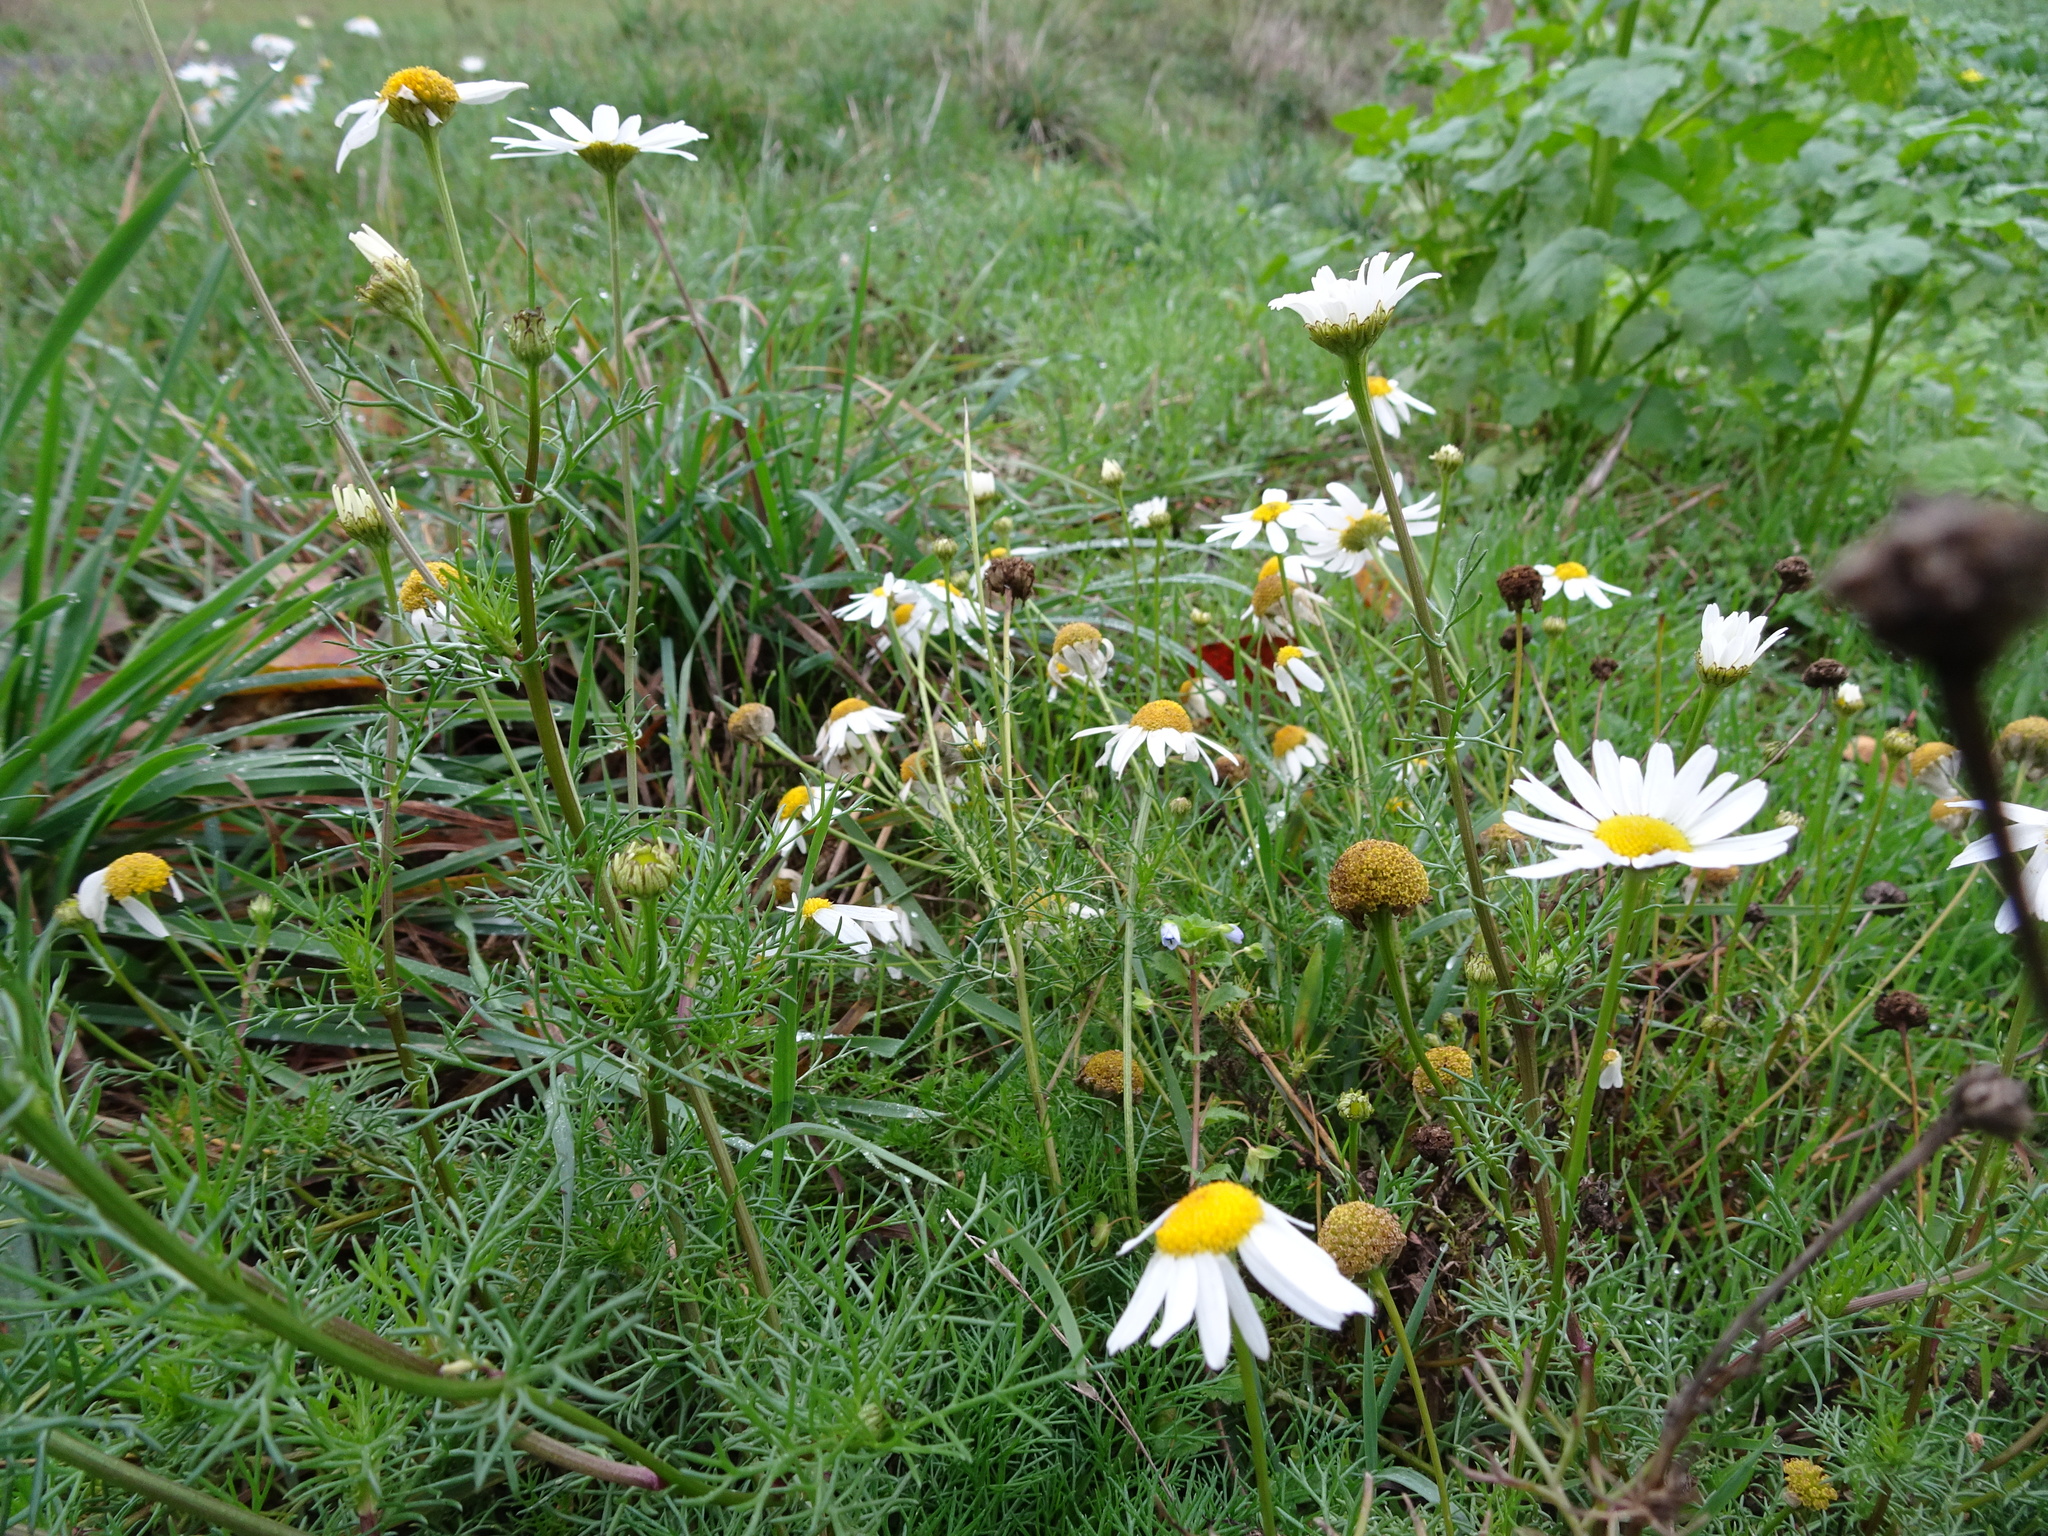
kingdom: Plantae
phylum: Tracheophyta
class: Magnoliopsida
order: Asterales
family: Asteraceae
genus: Tripleurospermum
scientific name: Tripleurospermum inodorum
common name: Scentless mayweed
